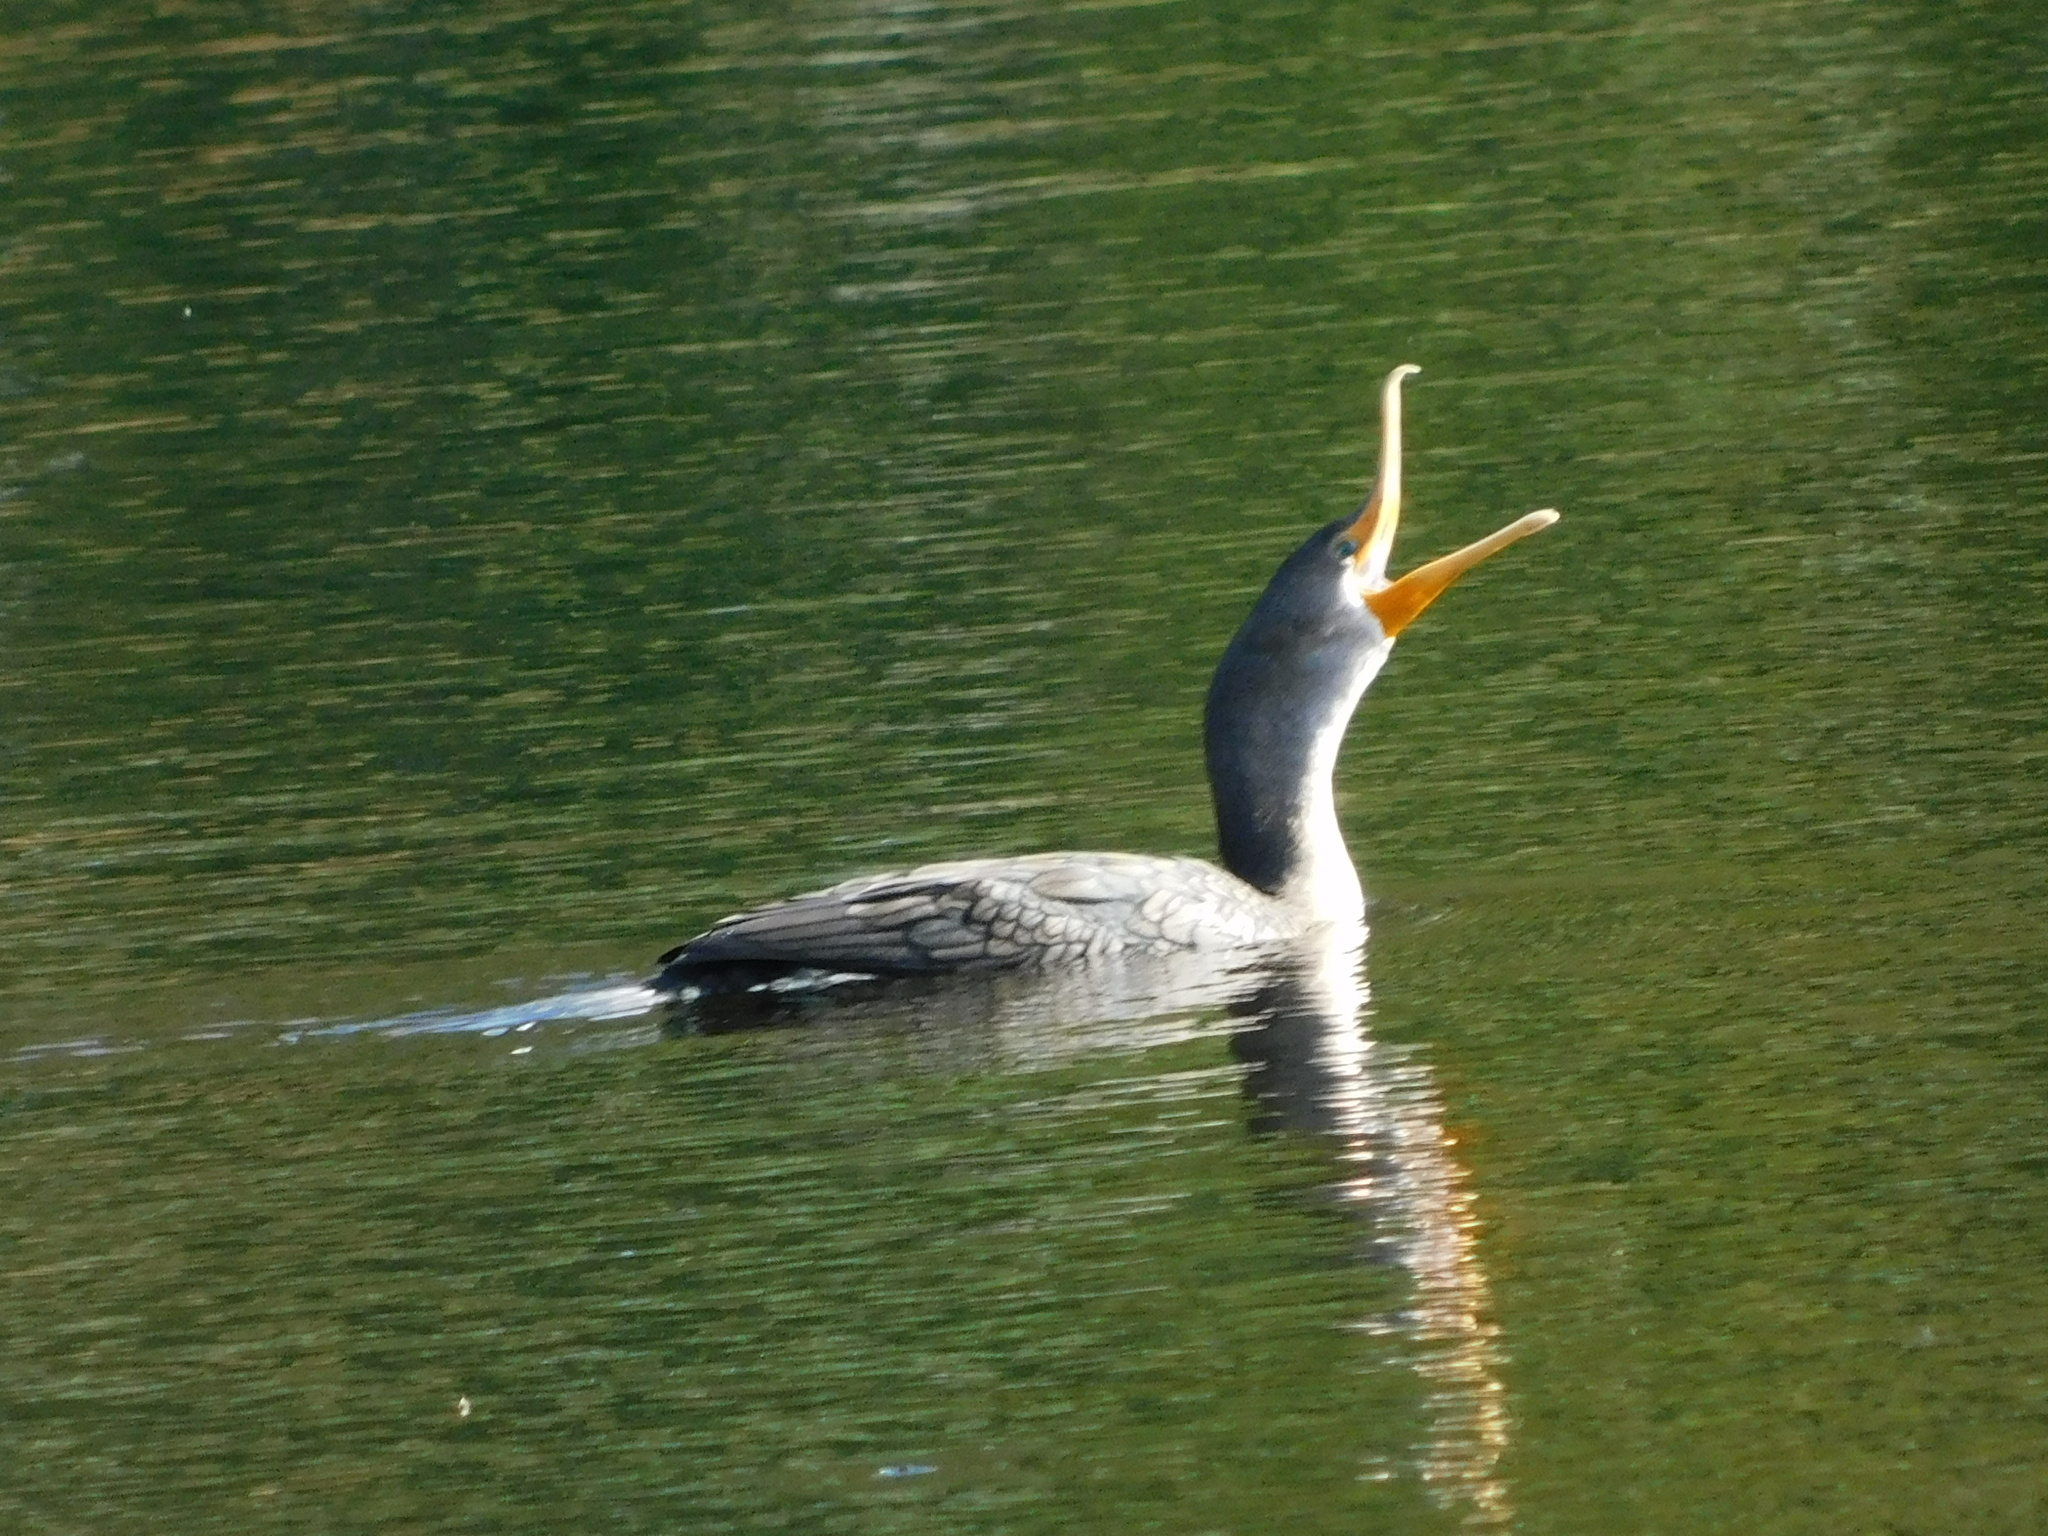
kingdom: Animalia
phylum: Chordata
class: Aves
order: Suliformes
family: Phalacrocoracidae
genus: Phalacrocorax
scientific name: Phalacrocorax auritus
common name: Double-crested cormorant
